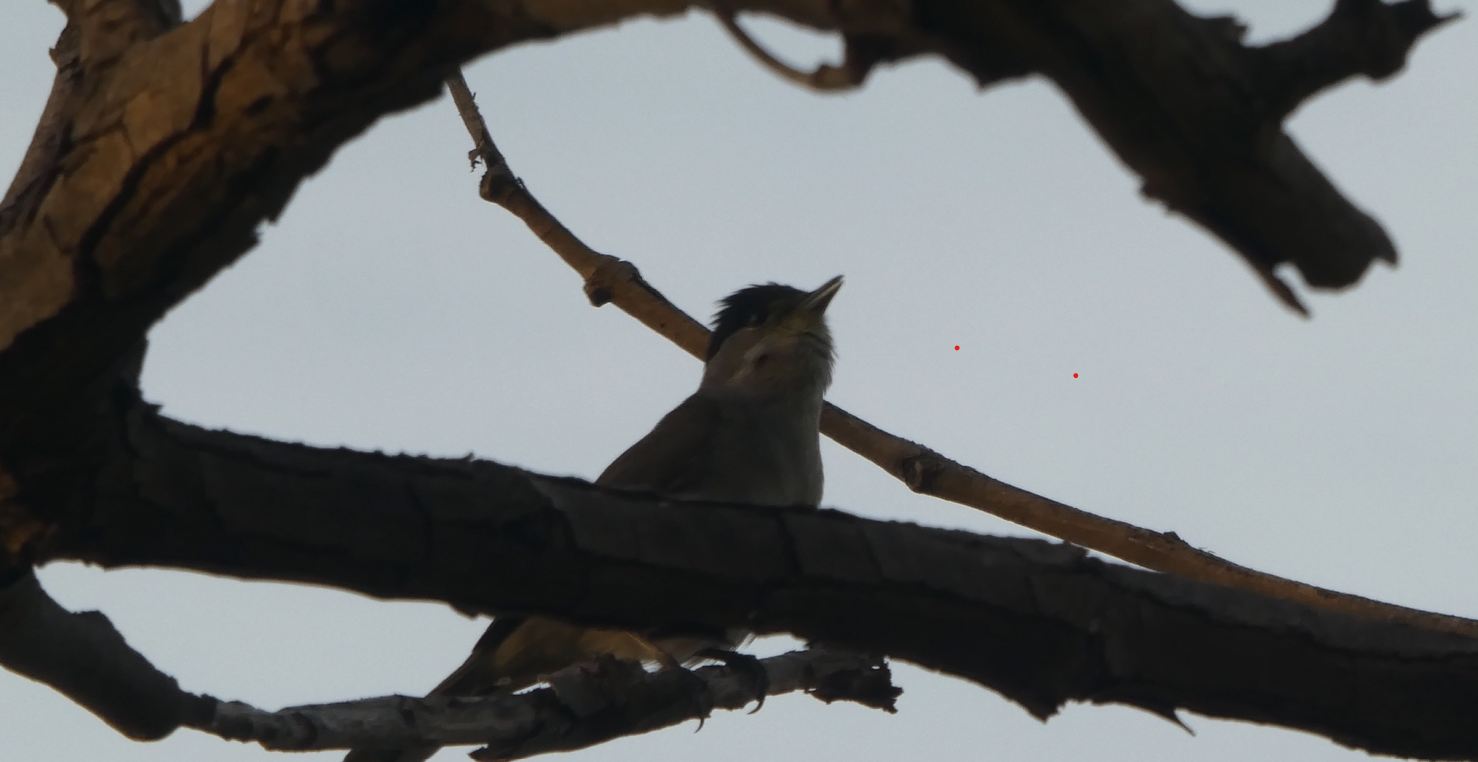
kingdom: Animalia
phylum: Chordata
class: Aves
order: Passeriformes
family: Sylviidae
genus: Sylvia
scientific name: Sylvia atricapilla
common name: Eurasian blackcap
